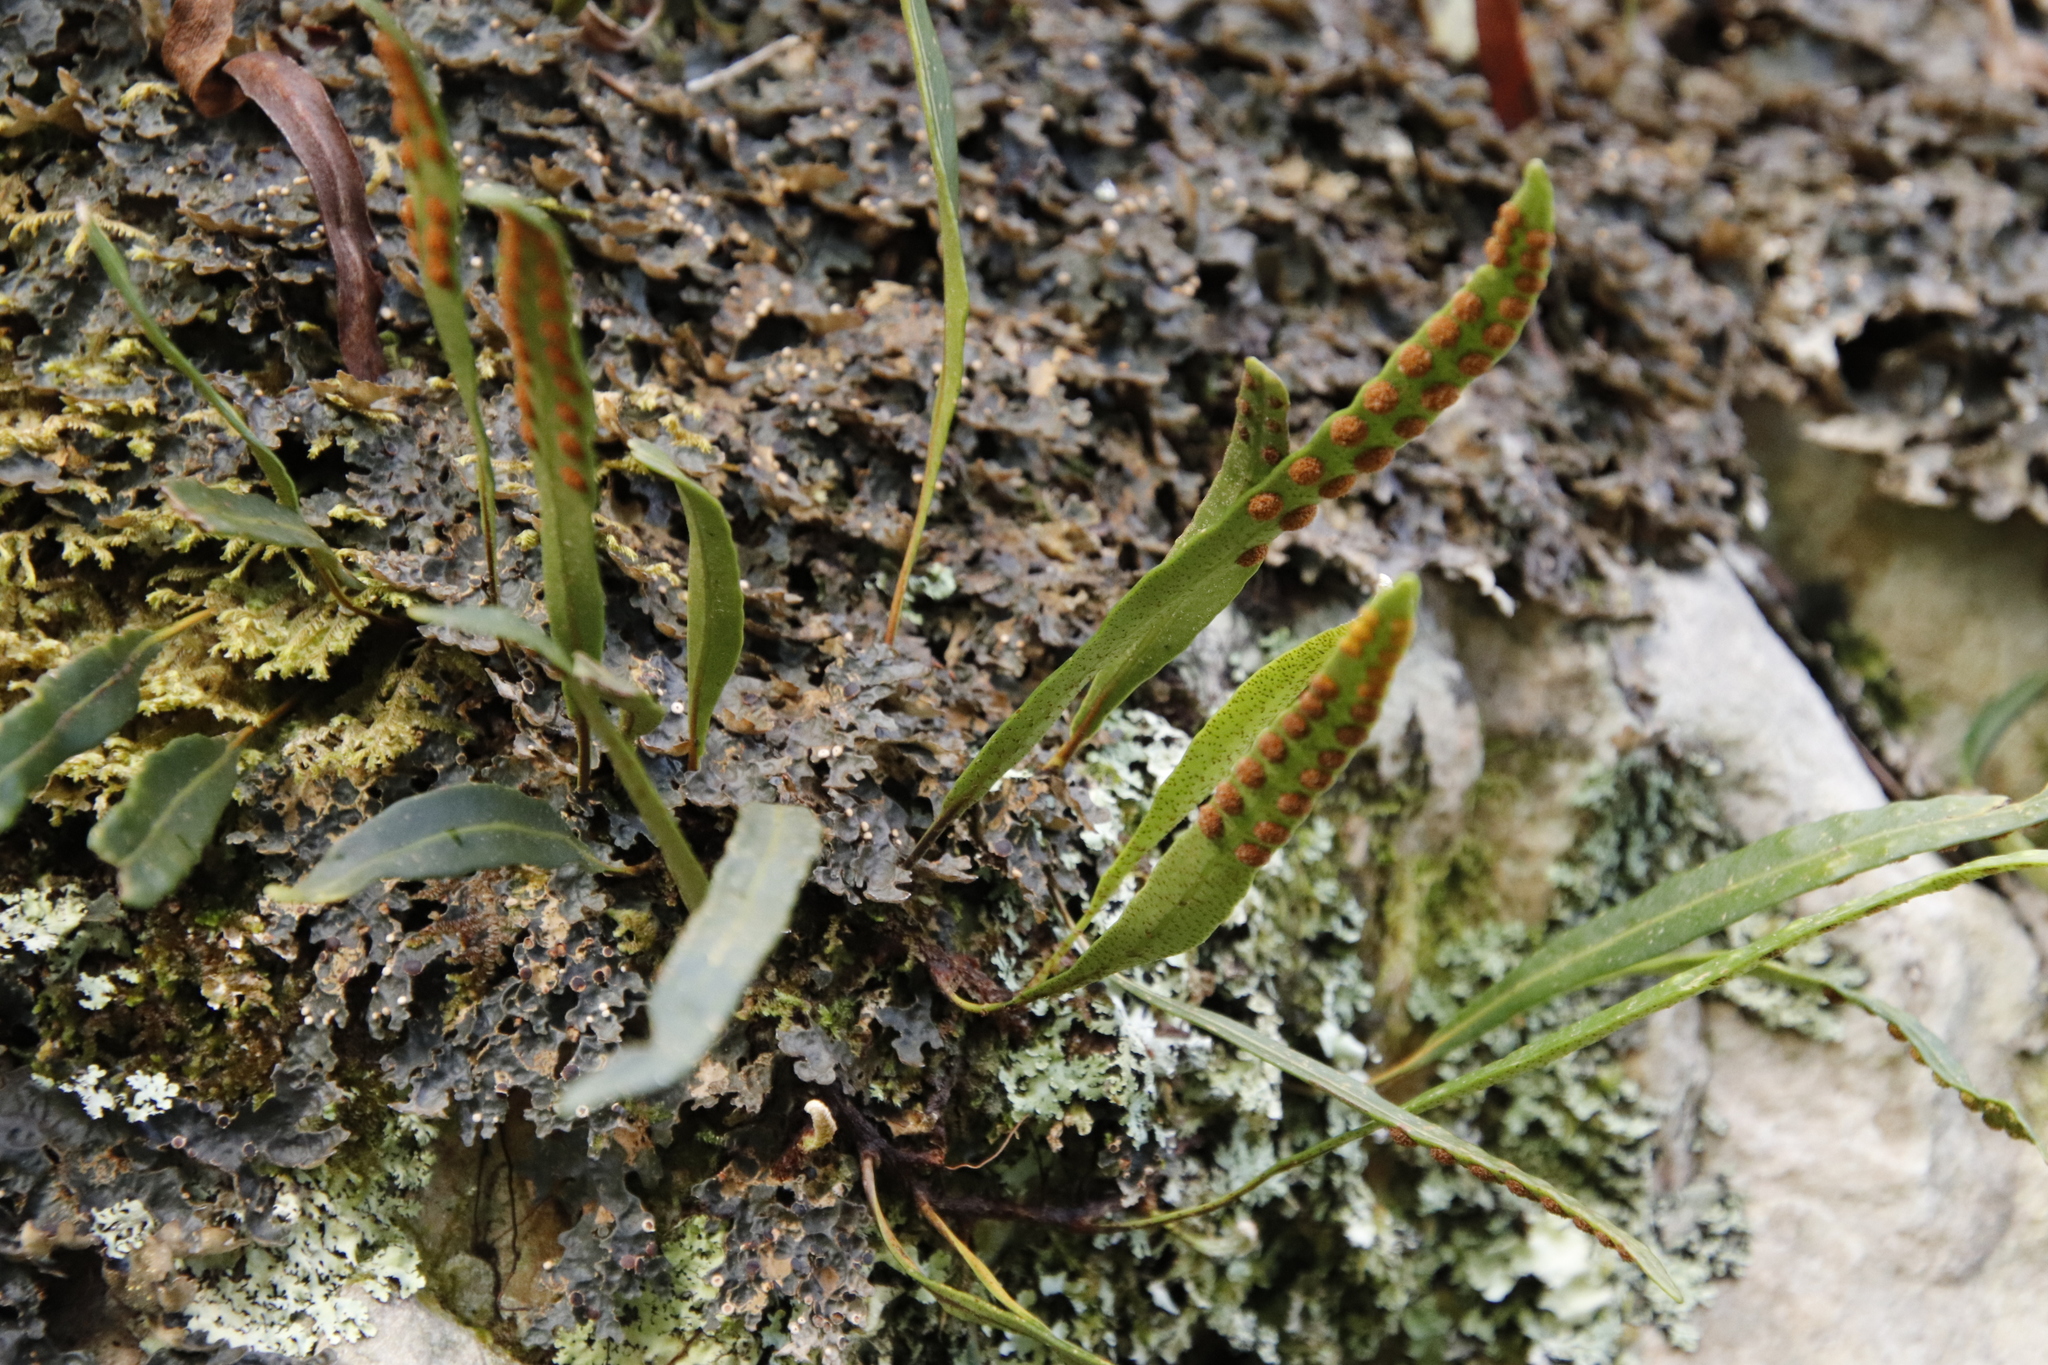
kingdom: Plantae
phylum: Tracheophyta
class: Polypodiopsida
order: Polypodiales
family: Polypodiaceae
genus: Pleopeltis
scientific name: Pleopeltis macrocarpa
